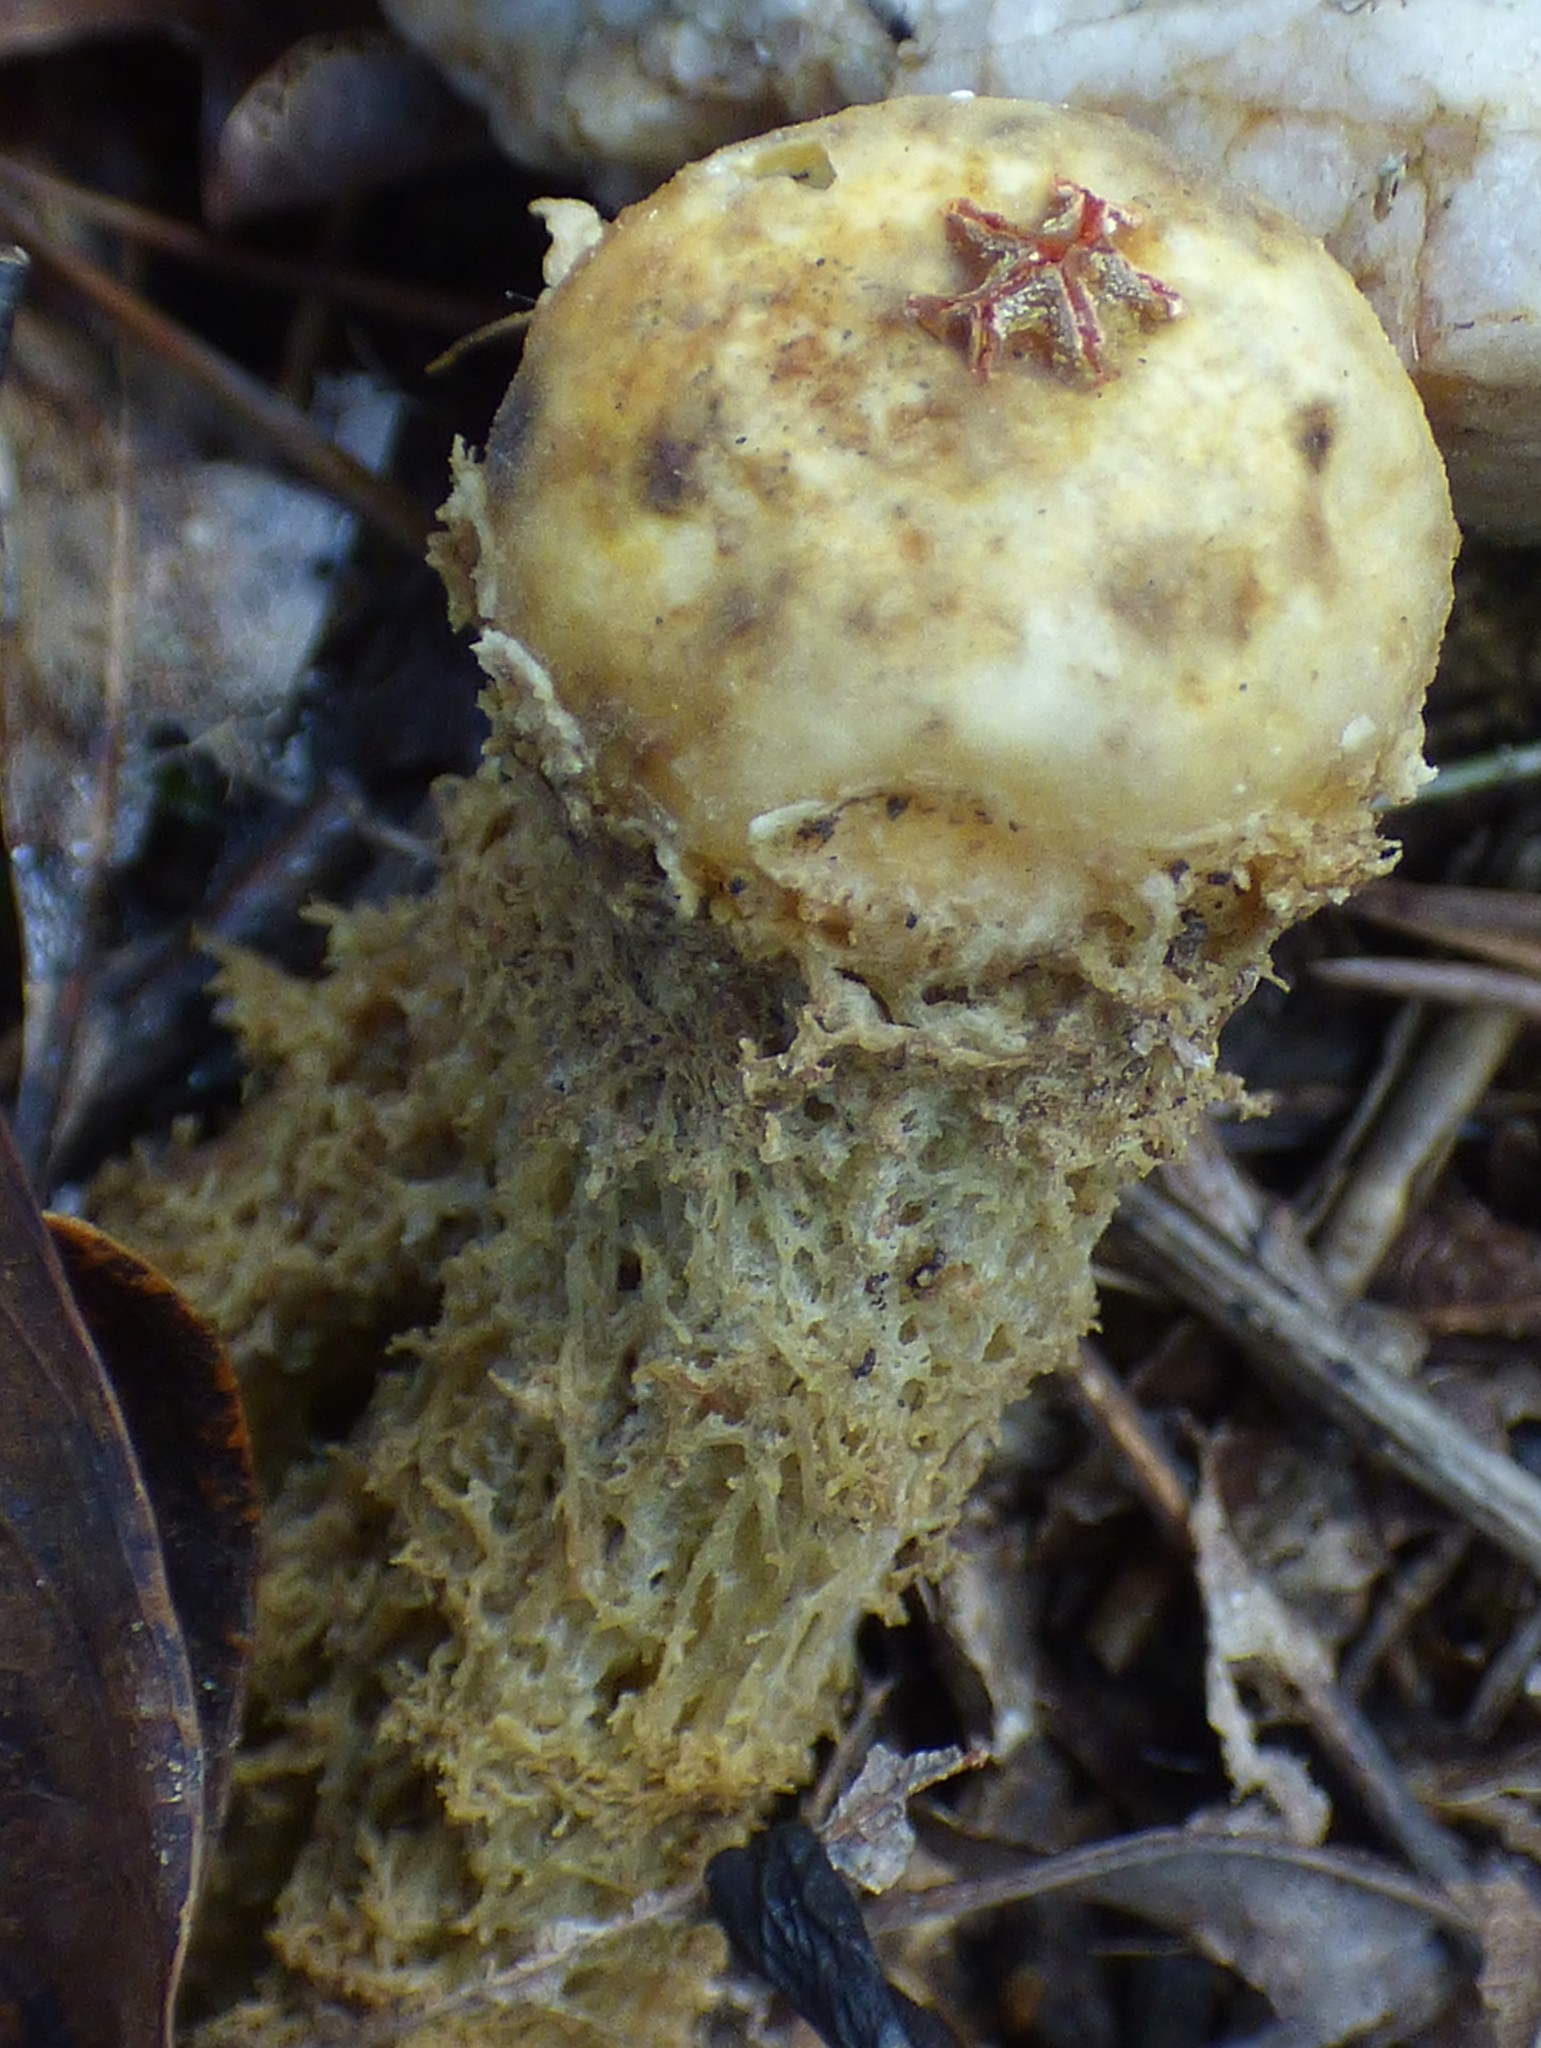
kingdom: Fungi
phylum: Basidiomycota
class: Agaricomycetes
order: Boletales
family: Calostomataceae
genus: Calostoma
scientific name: Calostoma lutescens
